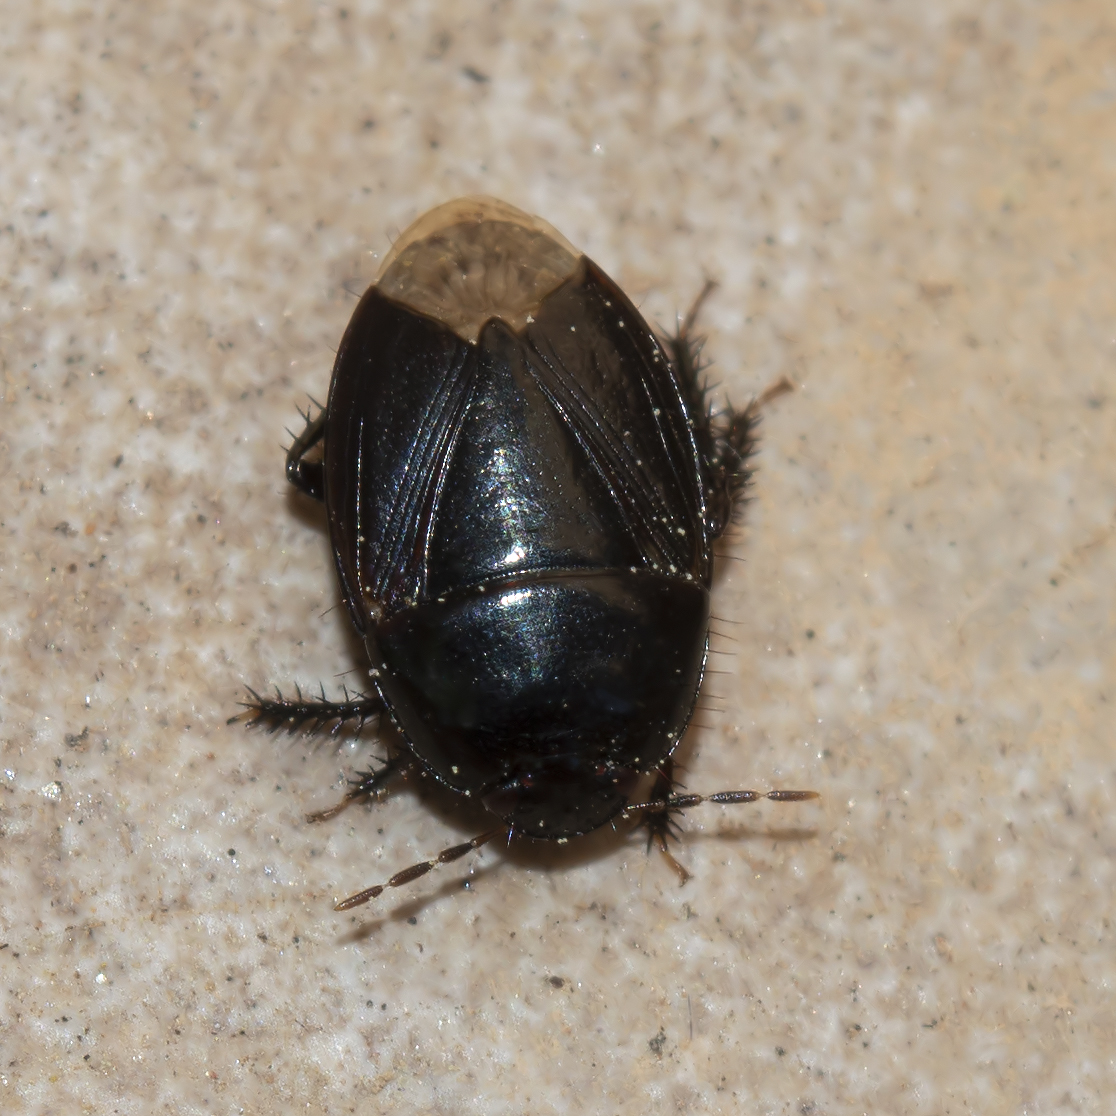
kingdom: Animalia
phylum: Arthropoda
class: Insecta
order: Hemiptera
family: Cydnidae
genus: Macroscytus
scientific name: Macroscytus brunneus
